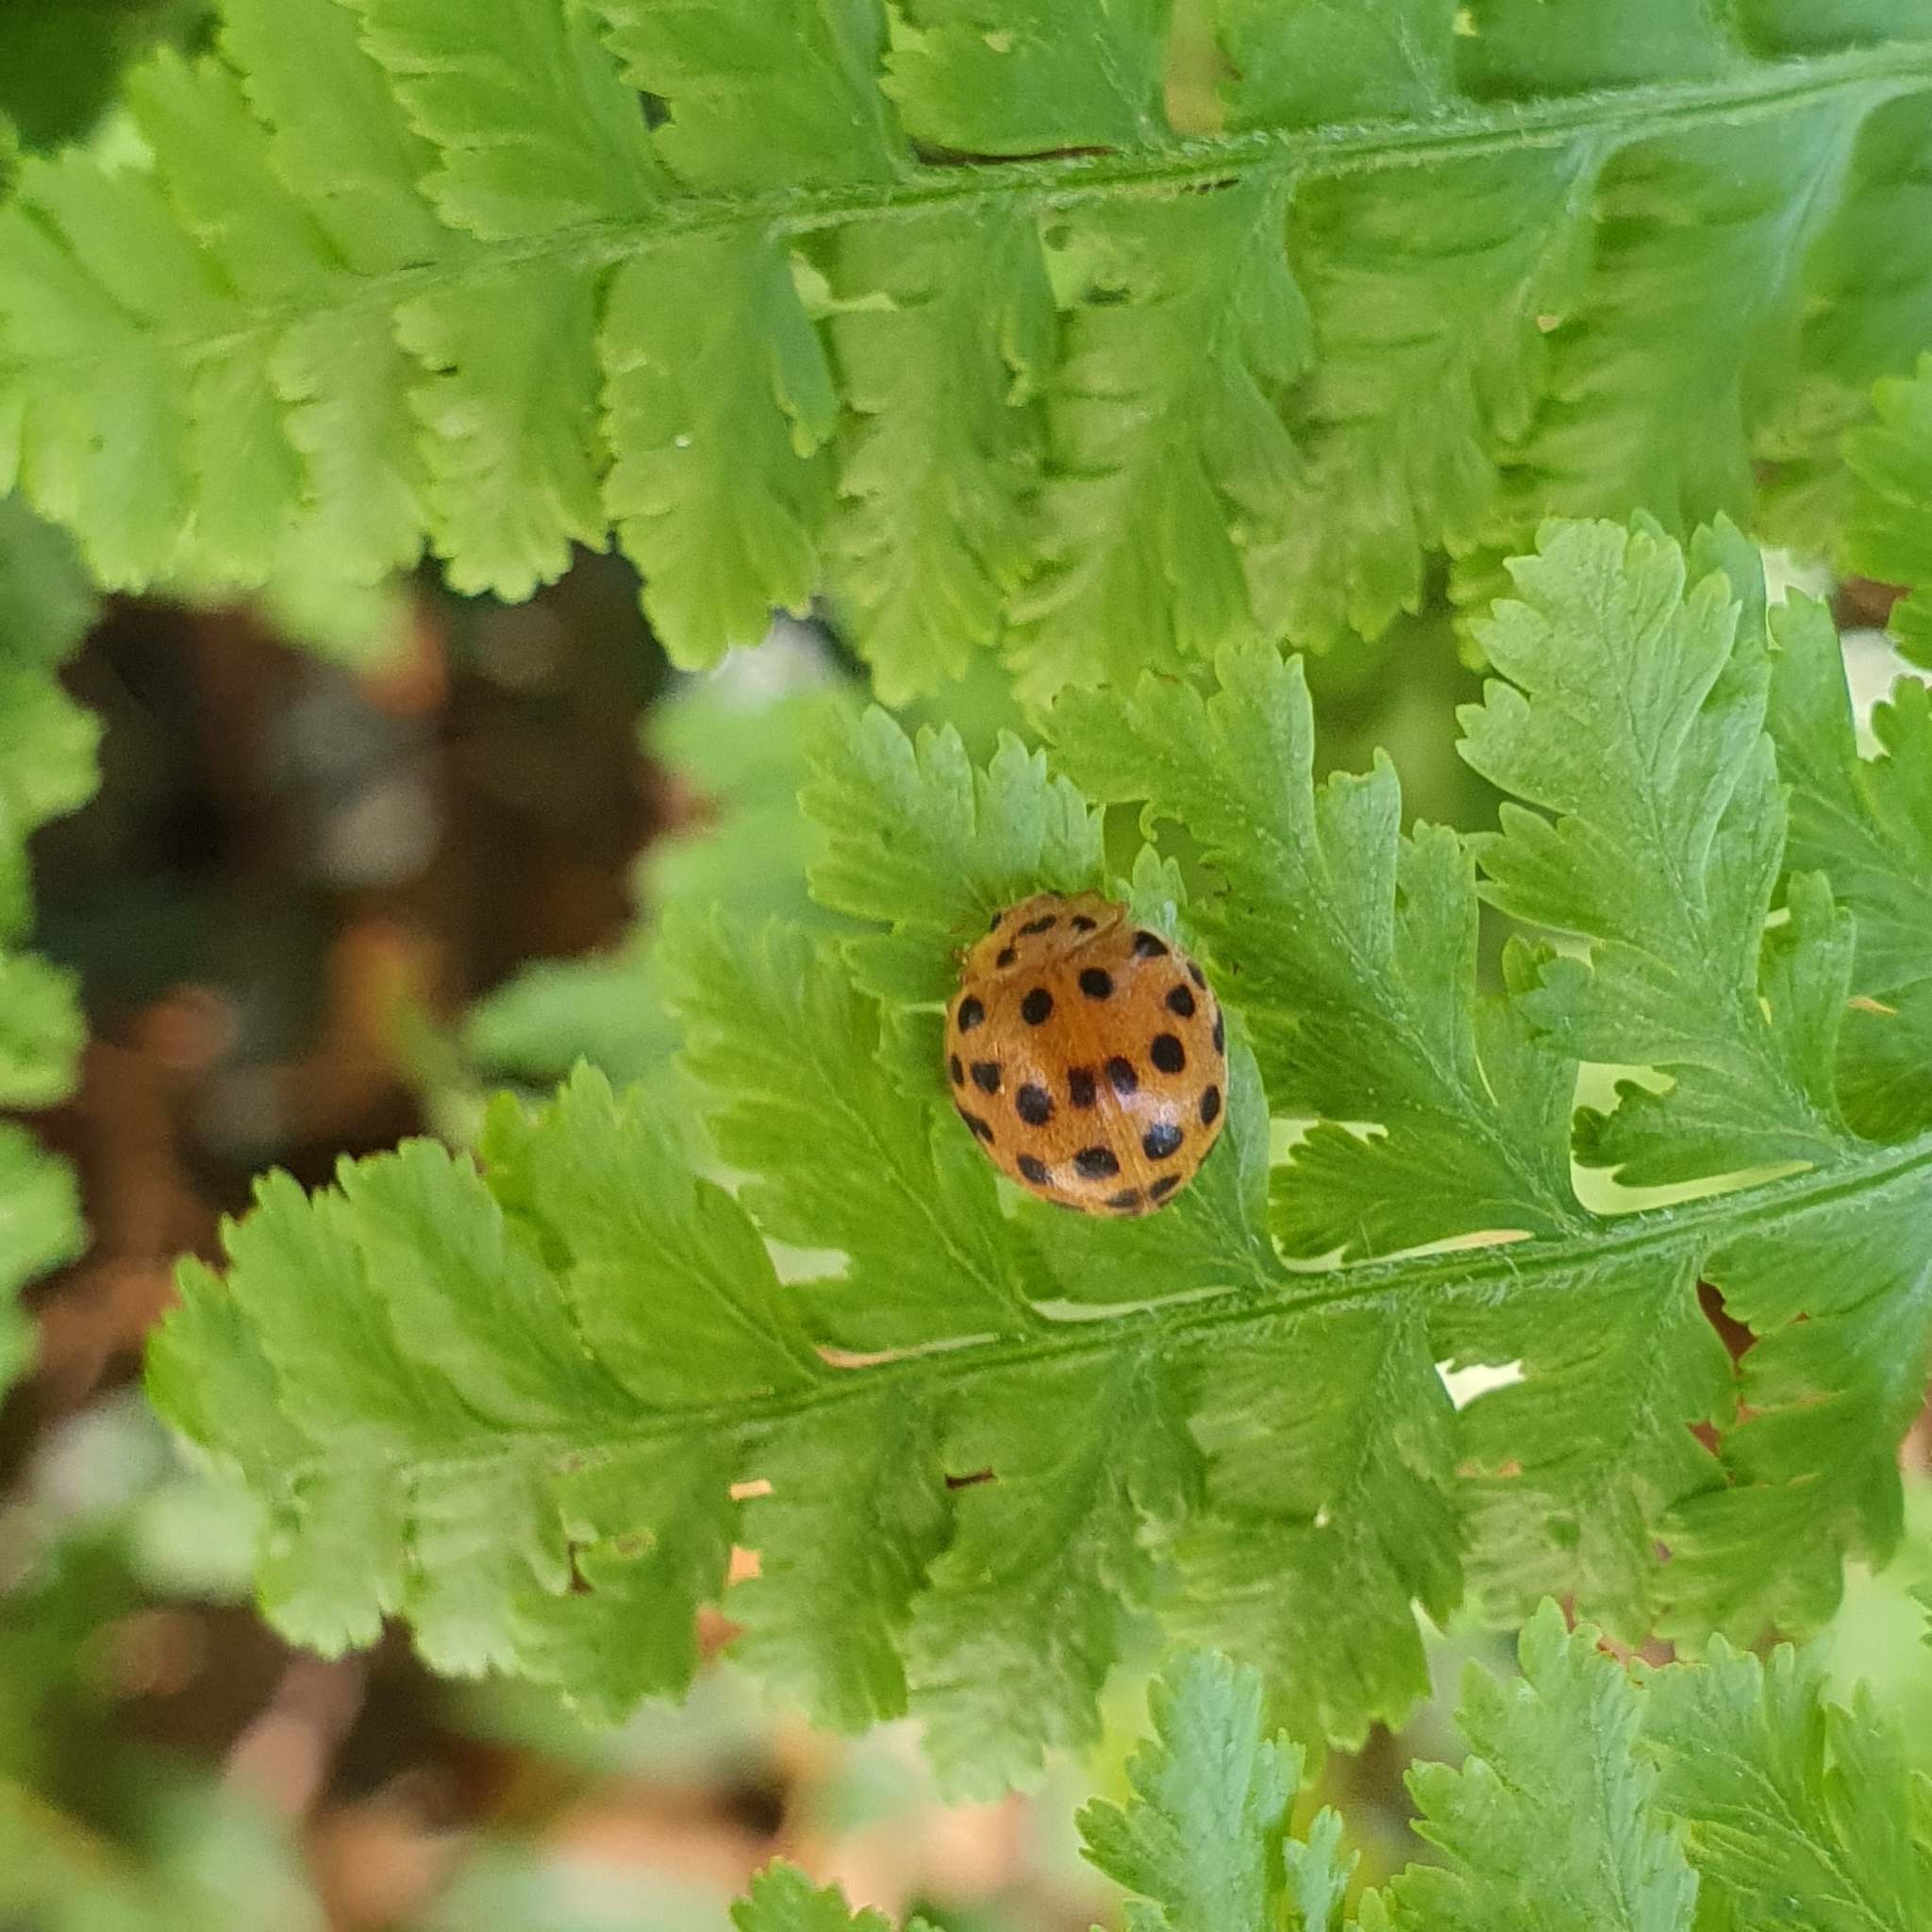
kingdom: Animalia
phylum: Arthropoda
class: Insecta
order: Coleoptera
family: Coccinellidae
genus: Henosepilachna
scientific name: Henosepilachna vigintioctopunctata
